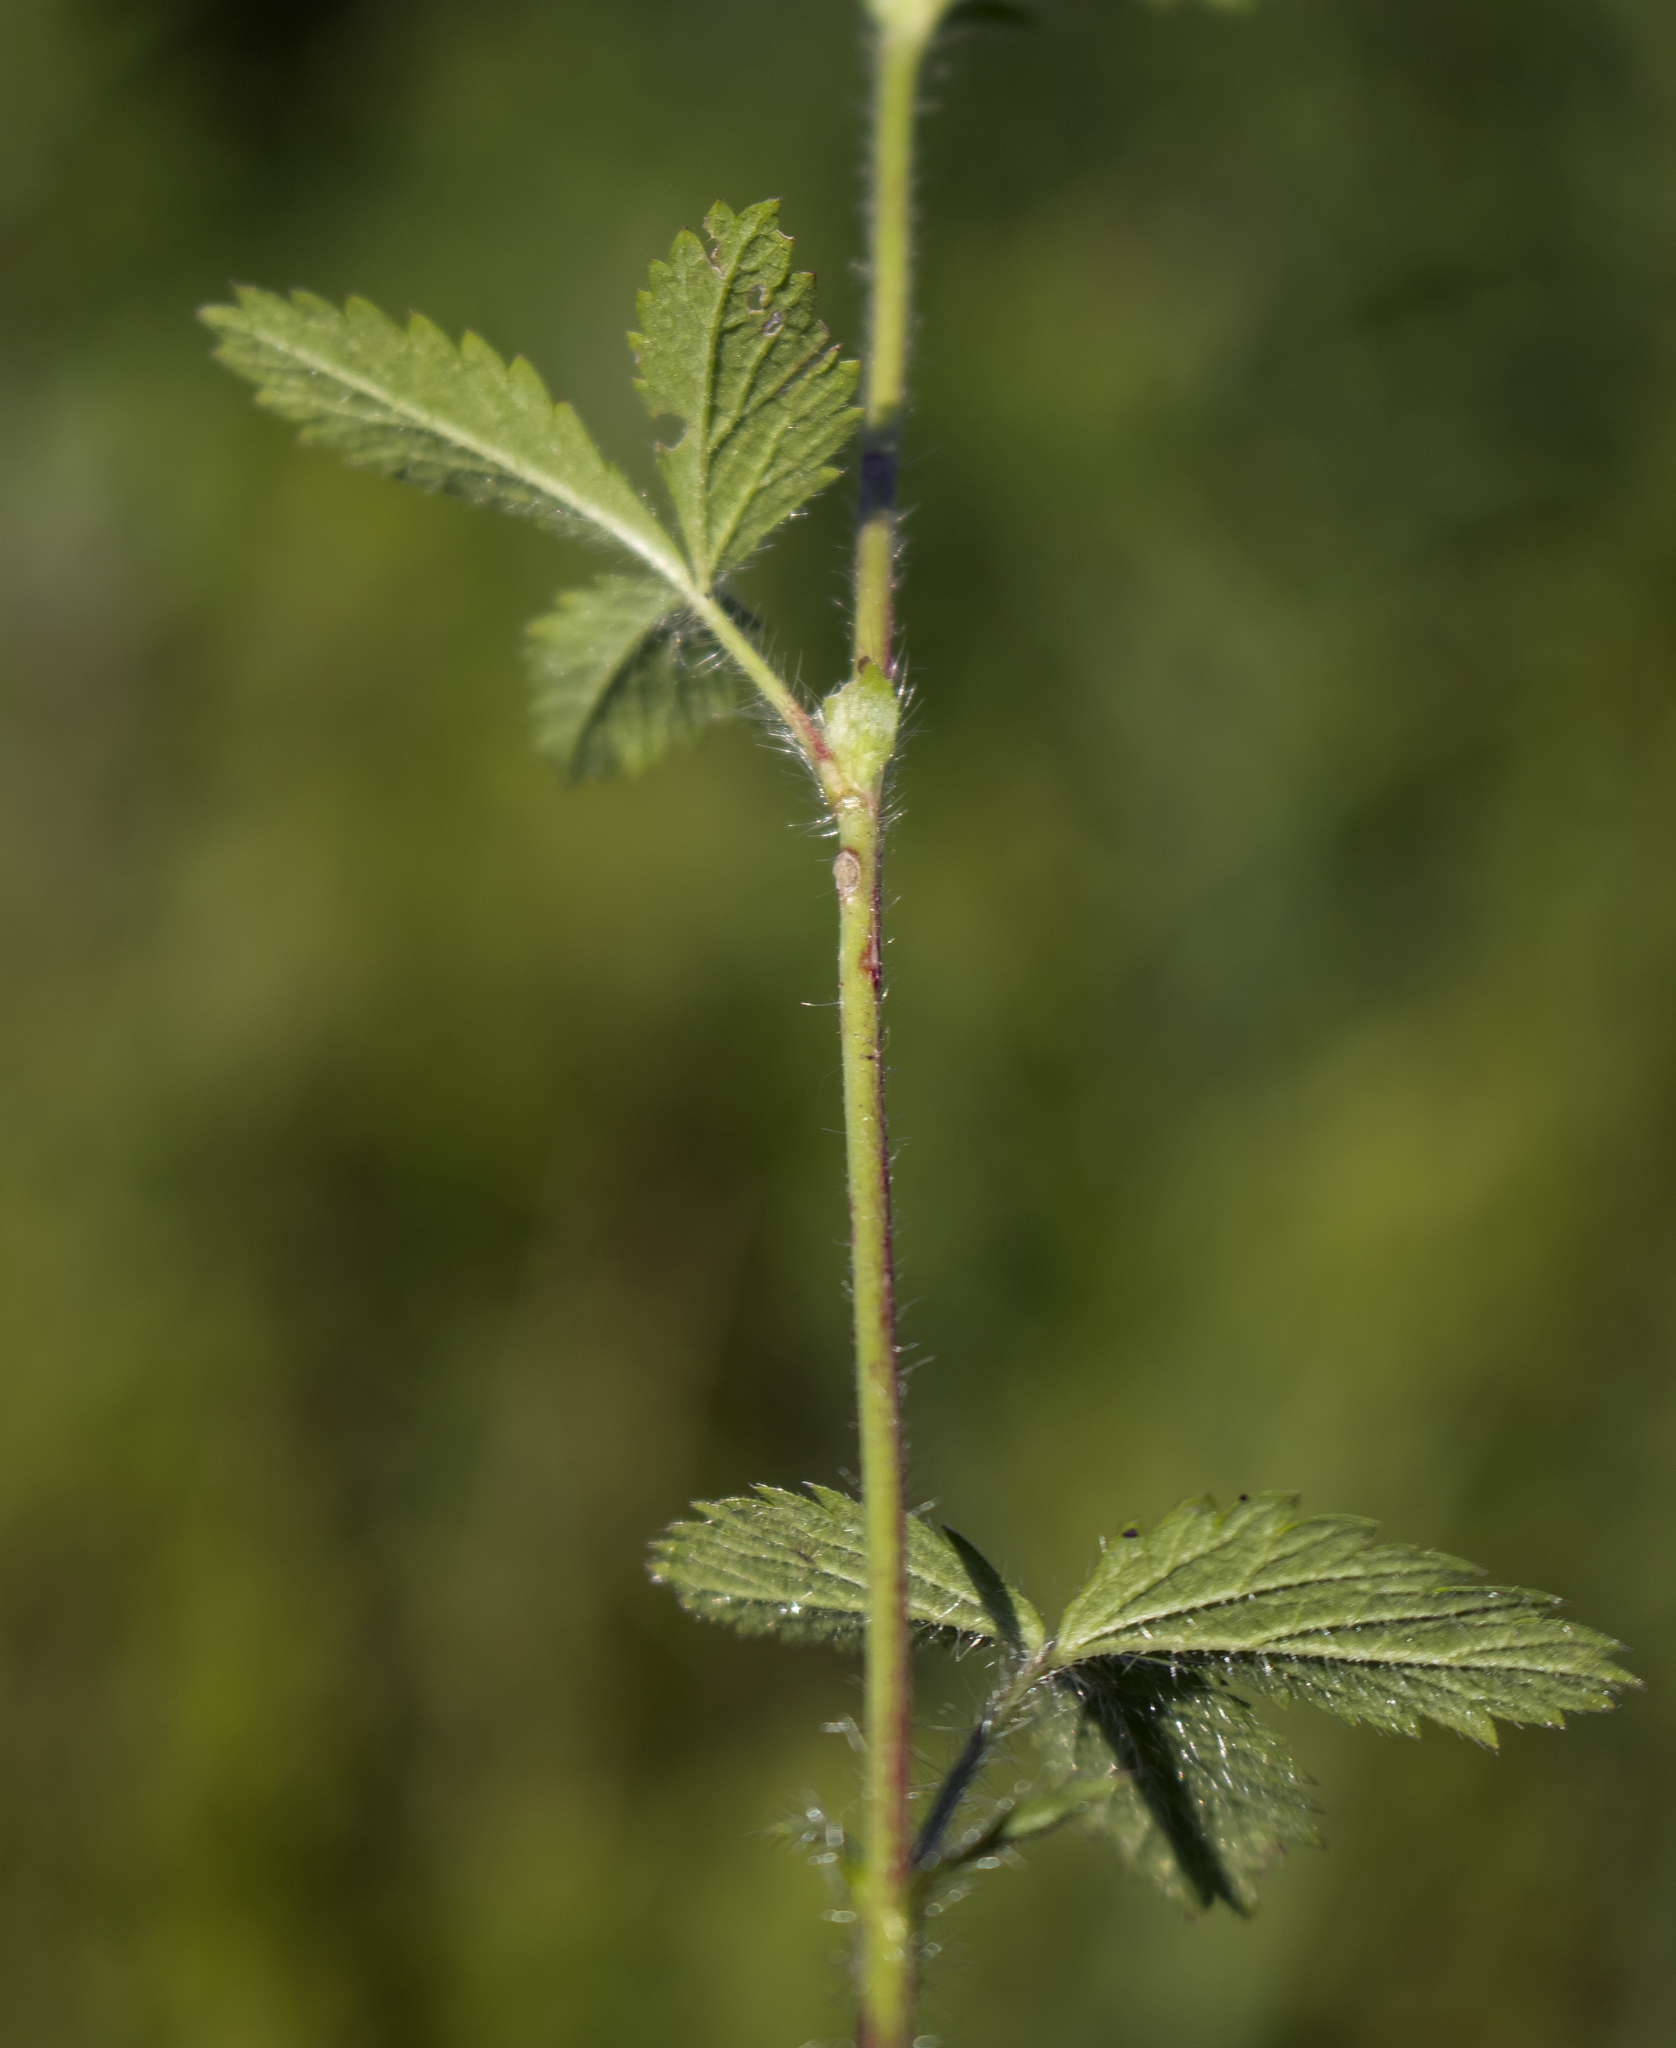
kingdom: Plantae
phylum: Tracheophyta
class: Magnoliopsida
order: Rosales
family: Rosaceae
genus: Potentilla
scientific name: Potentilla norvegica
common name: Ternate-leaved cinquefoil
